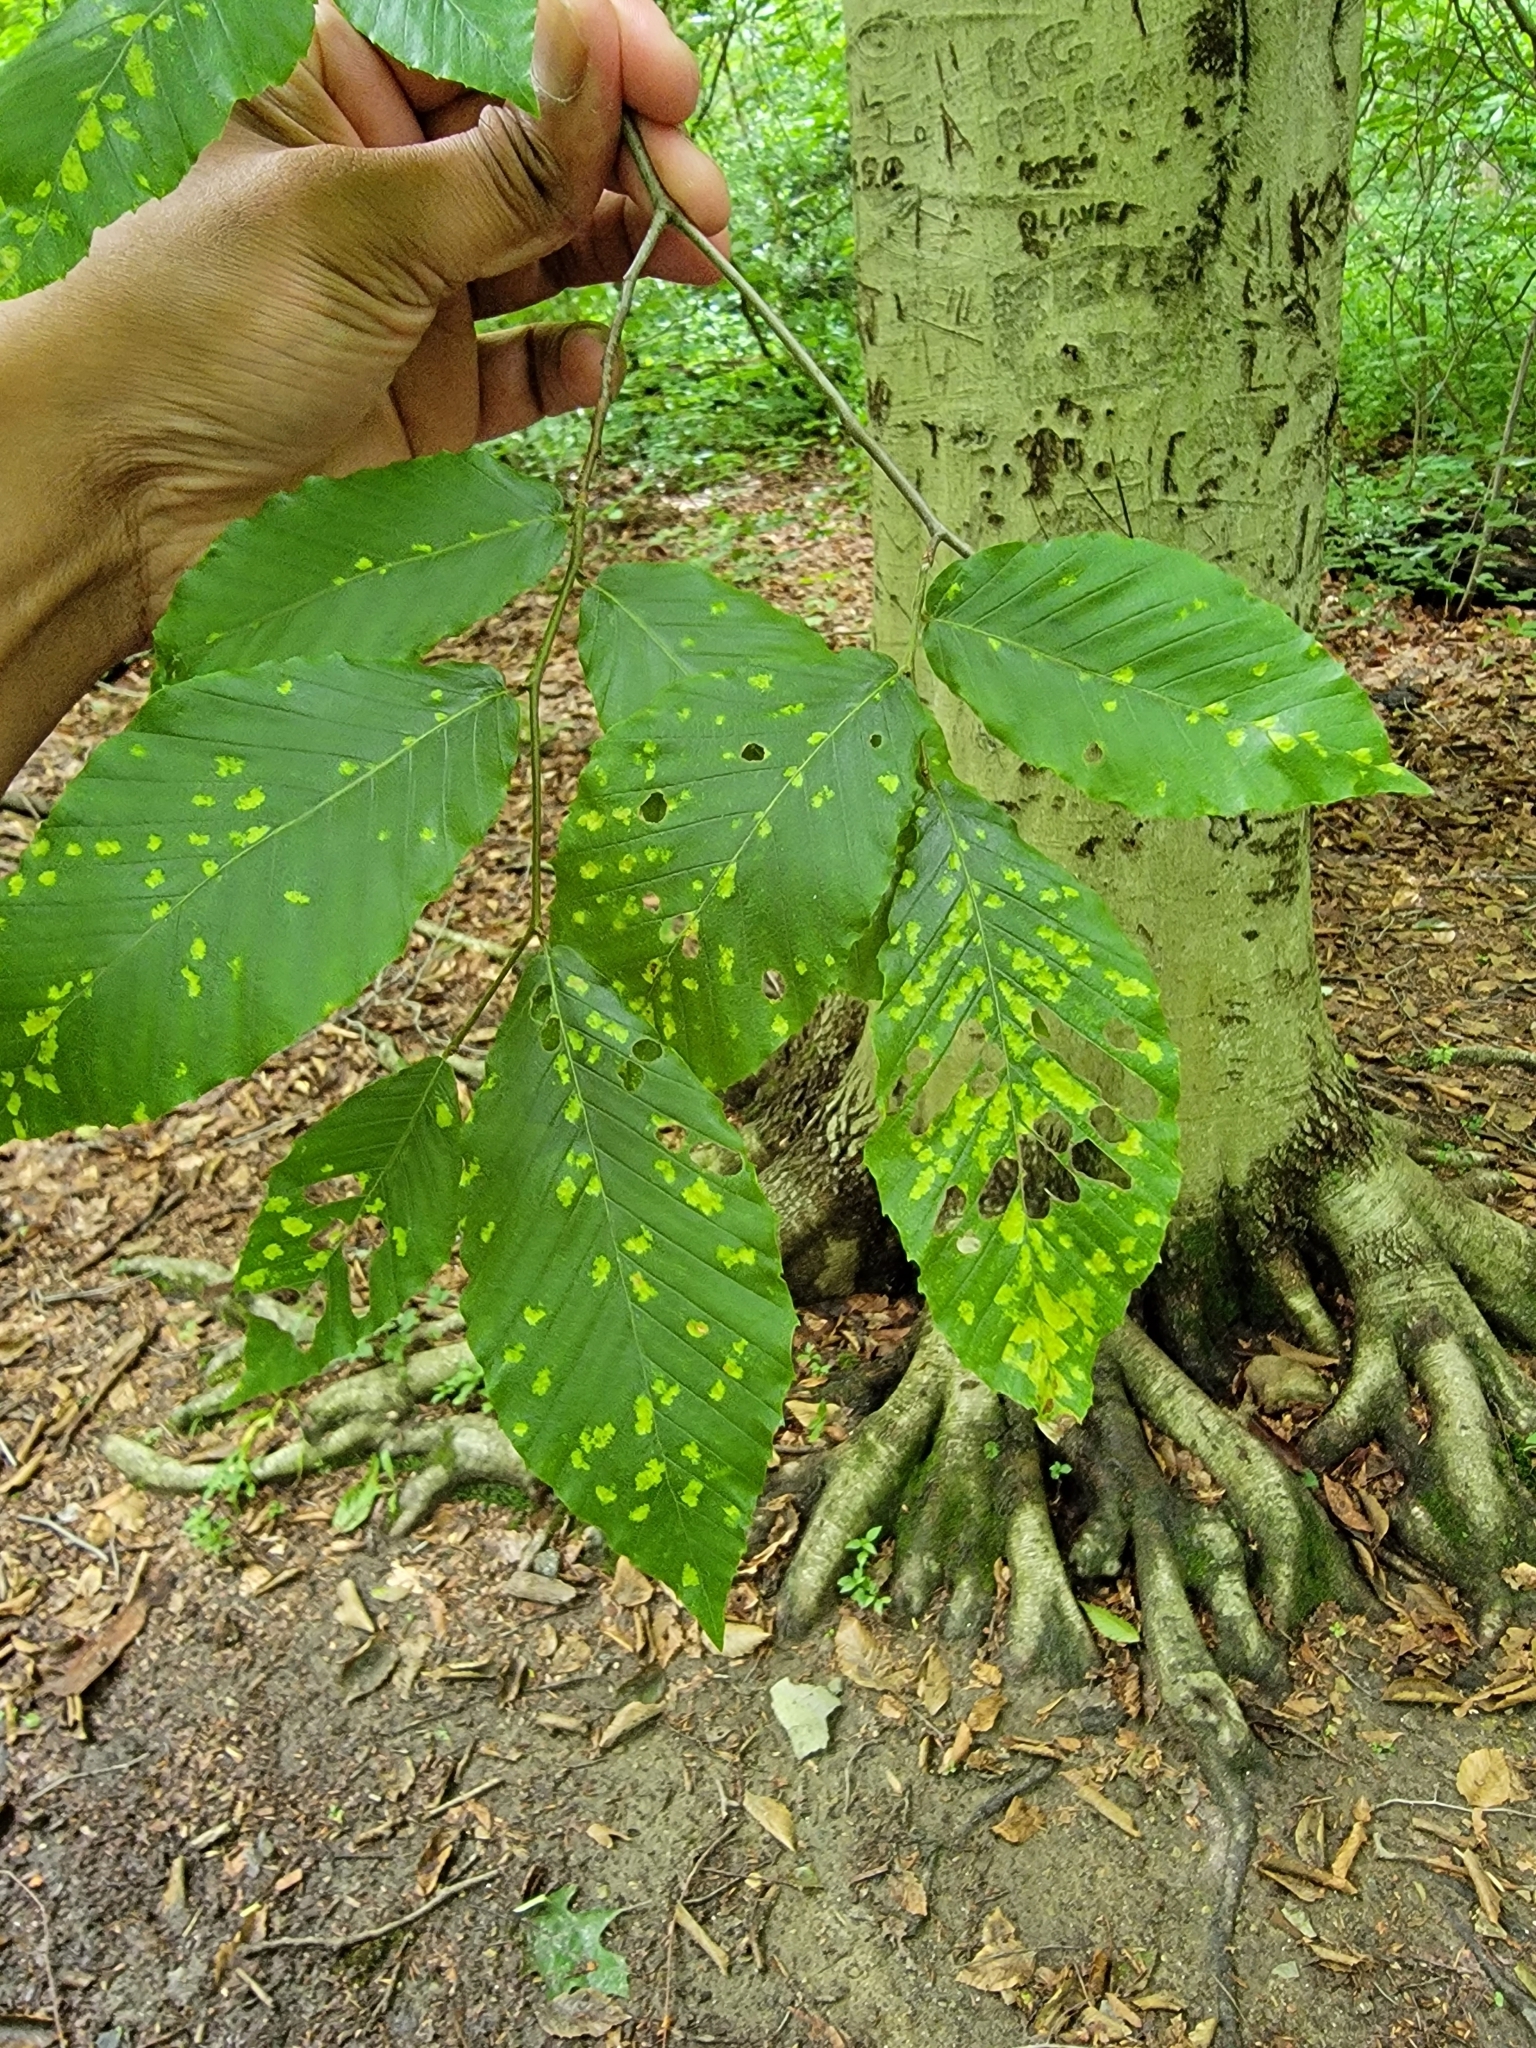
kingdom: Animalia
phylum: Arthropoda
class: Arachnida
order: Trombidiformes
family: Eriophyidae
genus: Acalitus
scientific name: Acalitus
